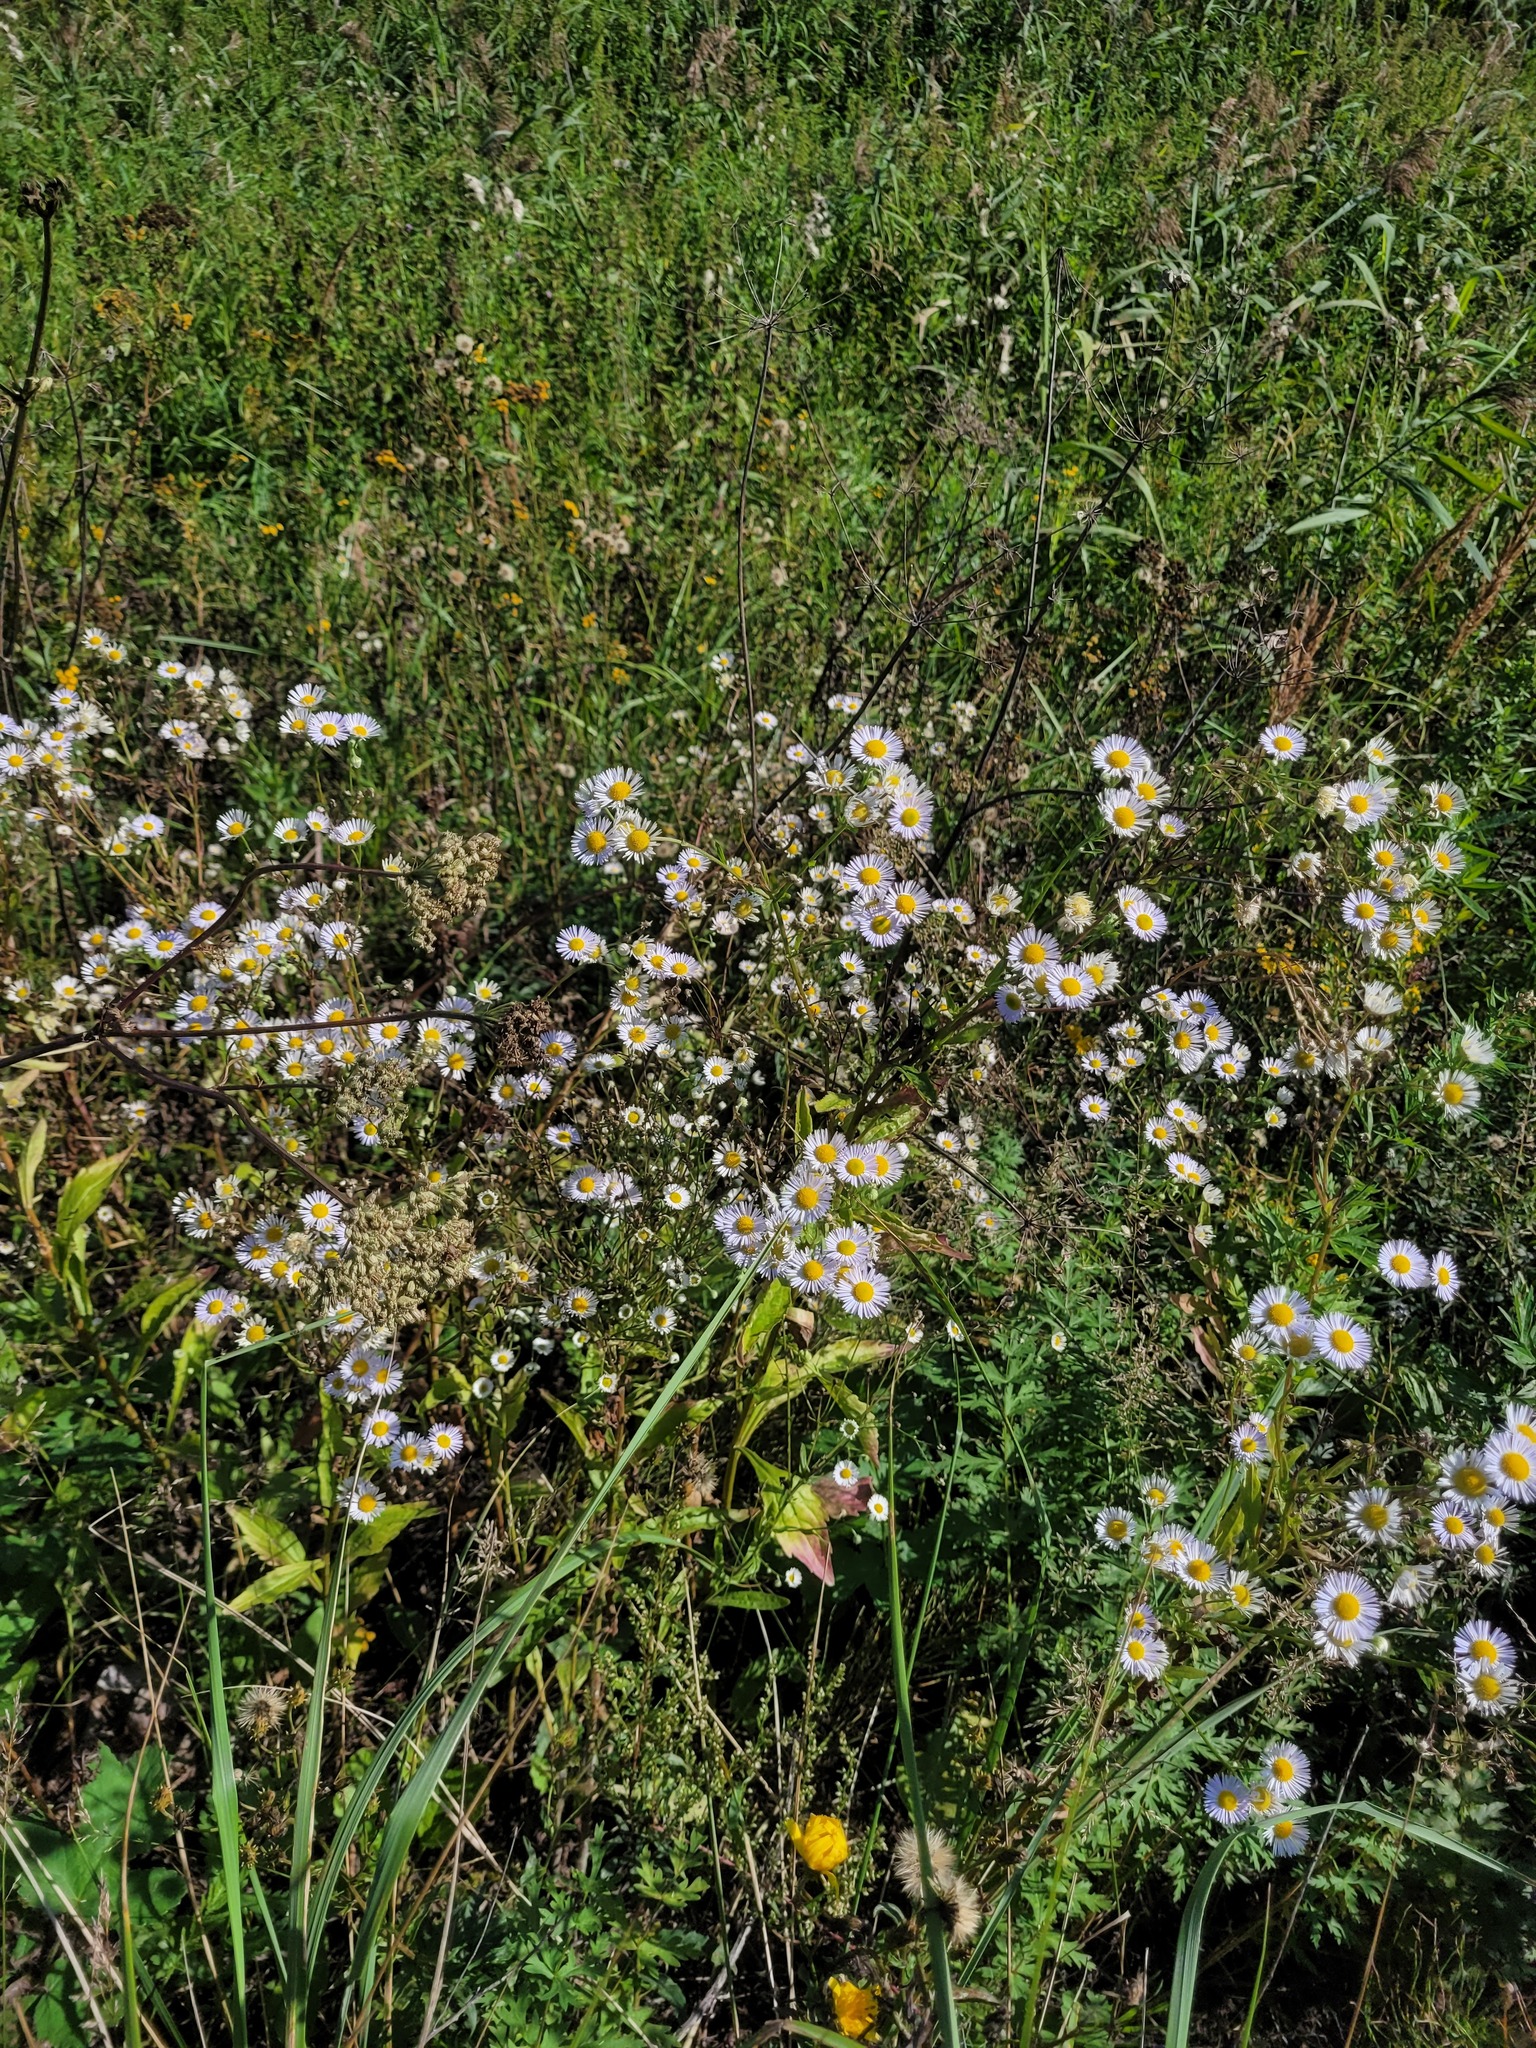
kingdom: Plantae
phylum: Tracheophyta
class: Magnoliopsida
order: Asterales
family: Asteraceae
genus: Erigeron
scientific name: Erigeron annuus
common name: Tall fleabane
